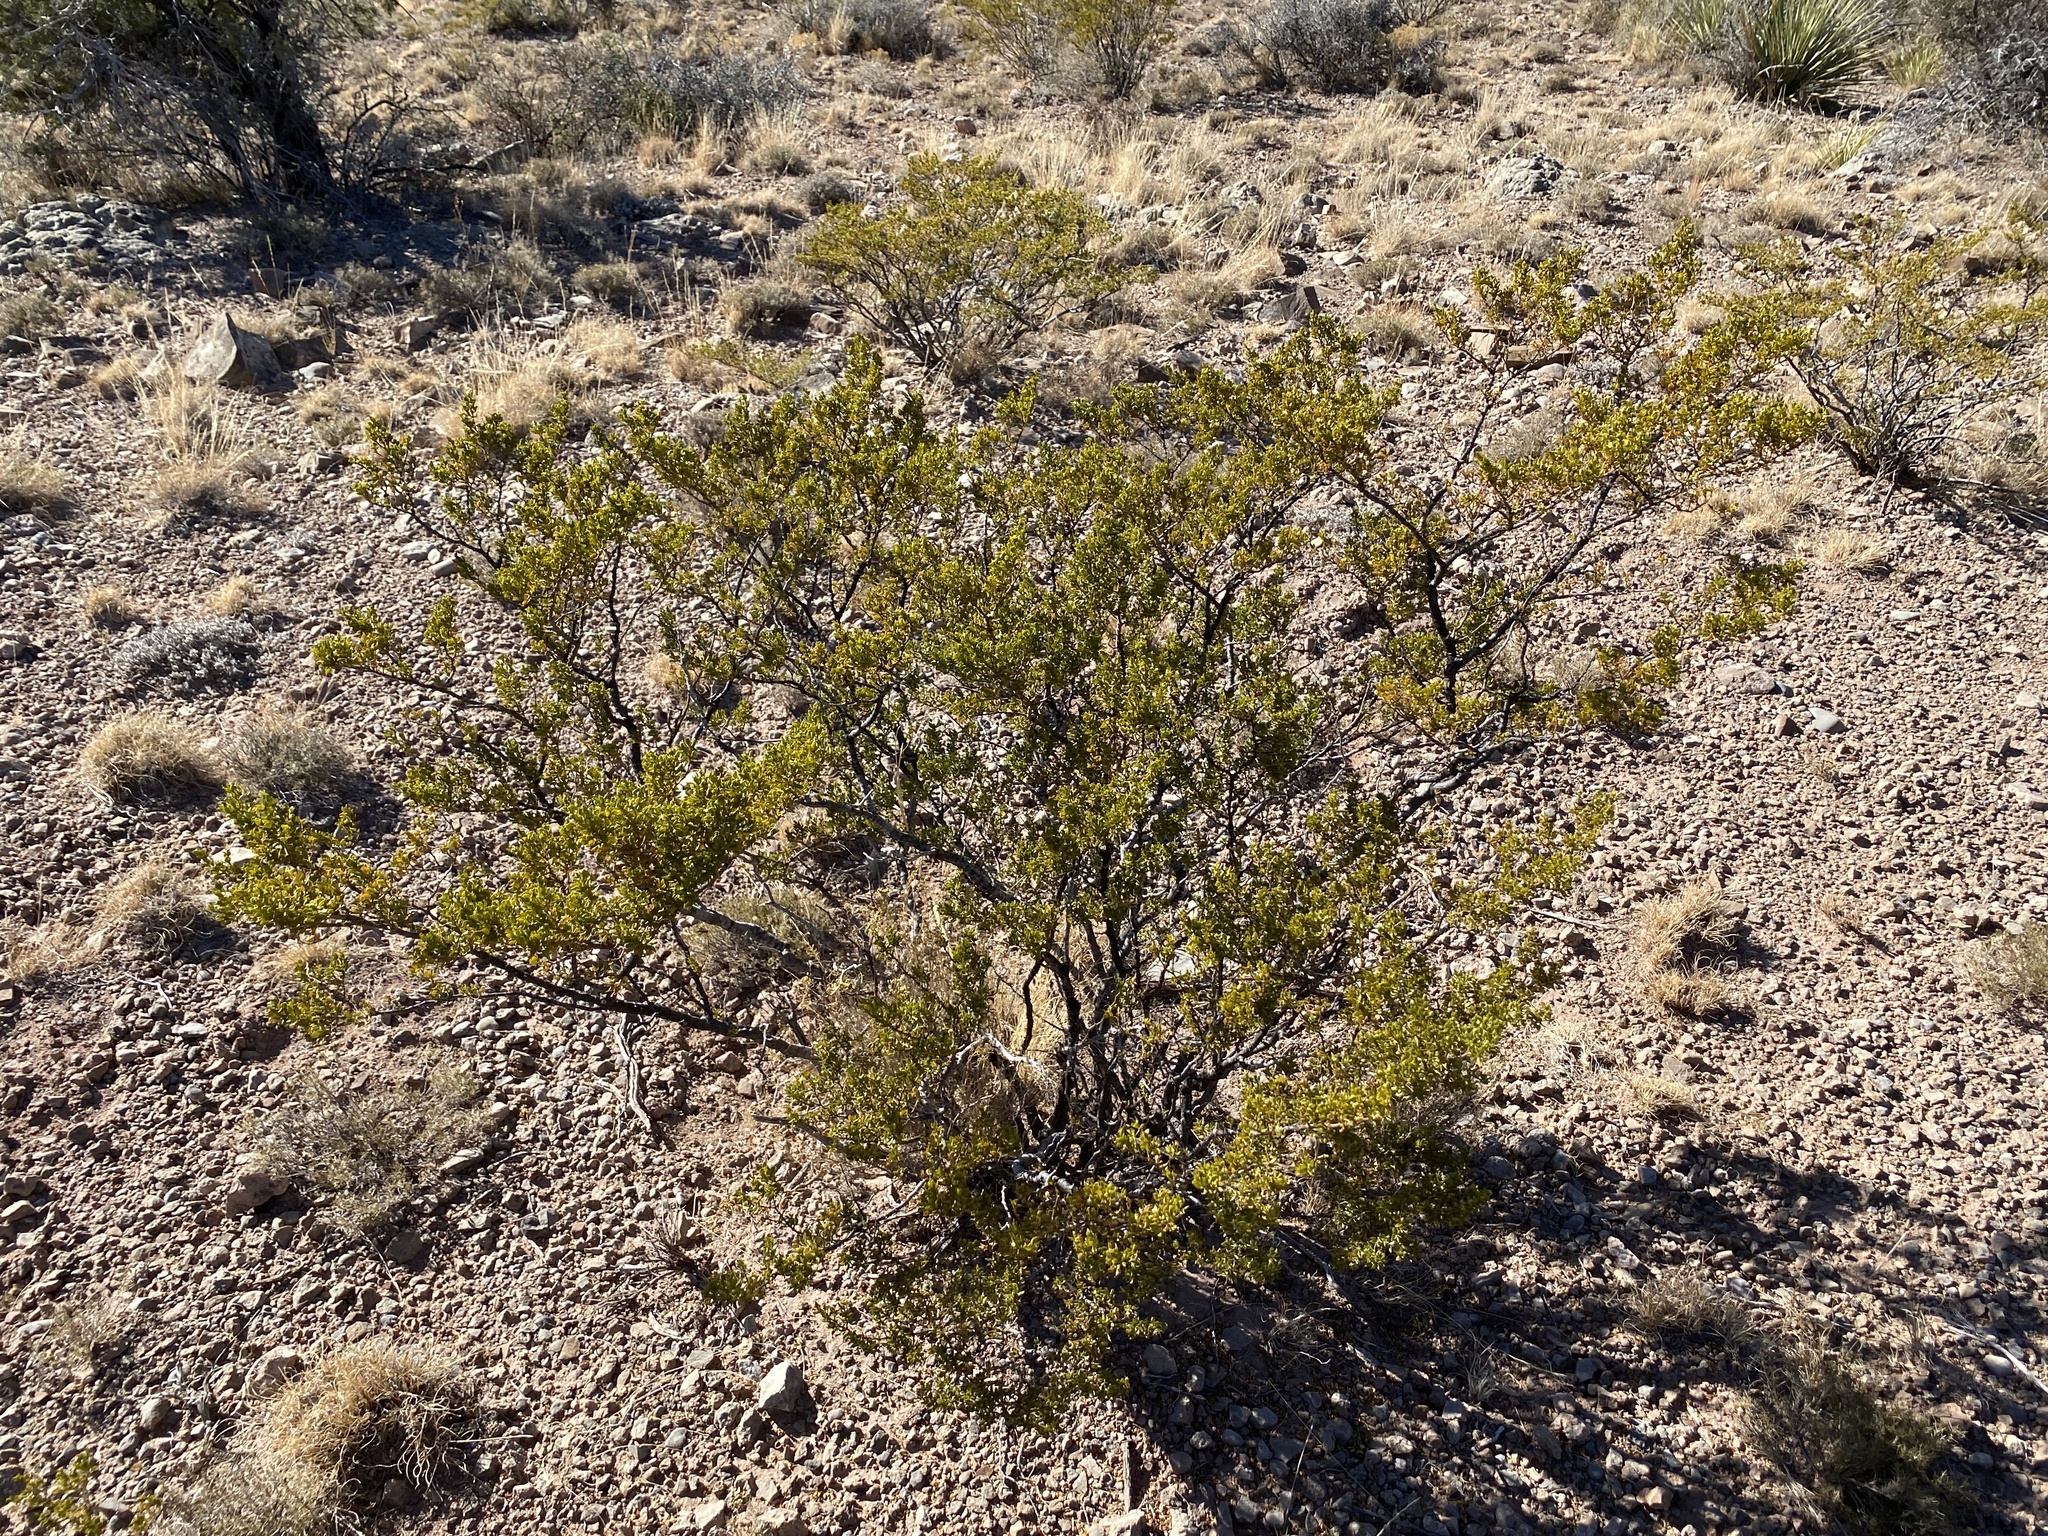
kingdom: Plantae
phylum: Tracheophyta
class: Magnoliopsida
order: Zygophyllales
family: Zygophyllaceae
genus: Larrea
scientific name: Larrea tridentata
